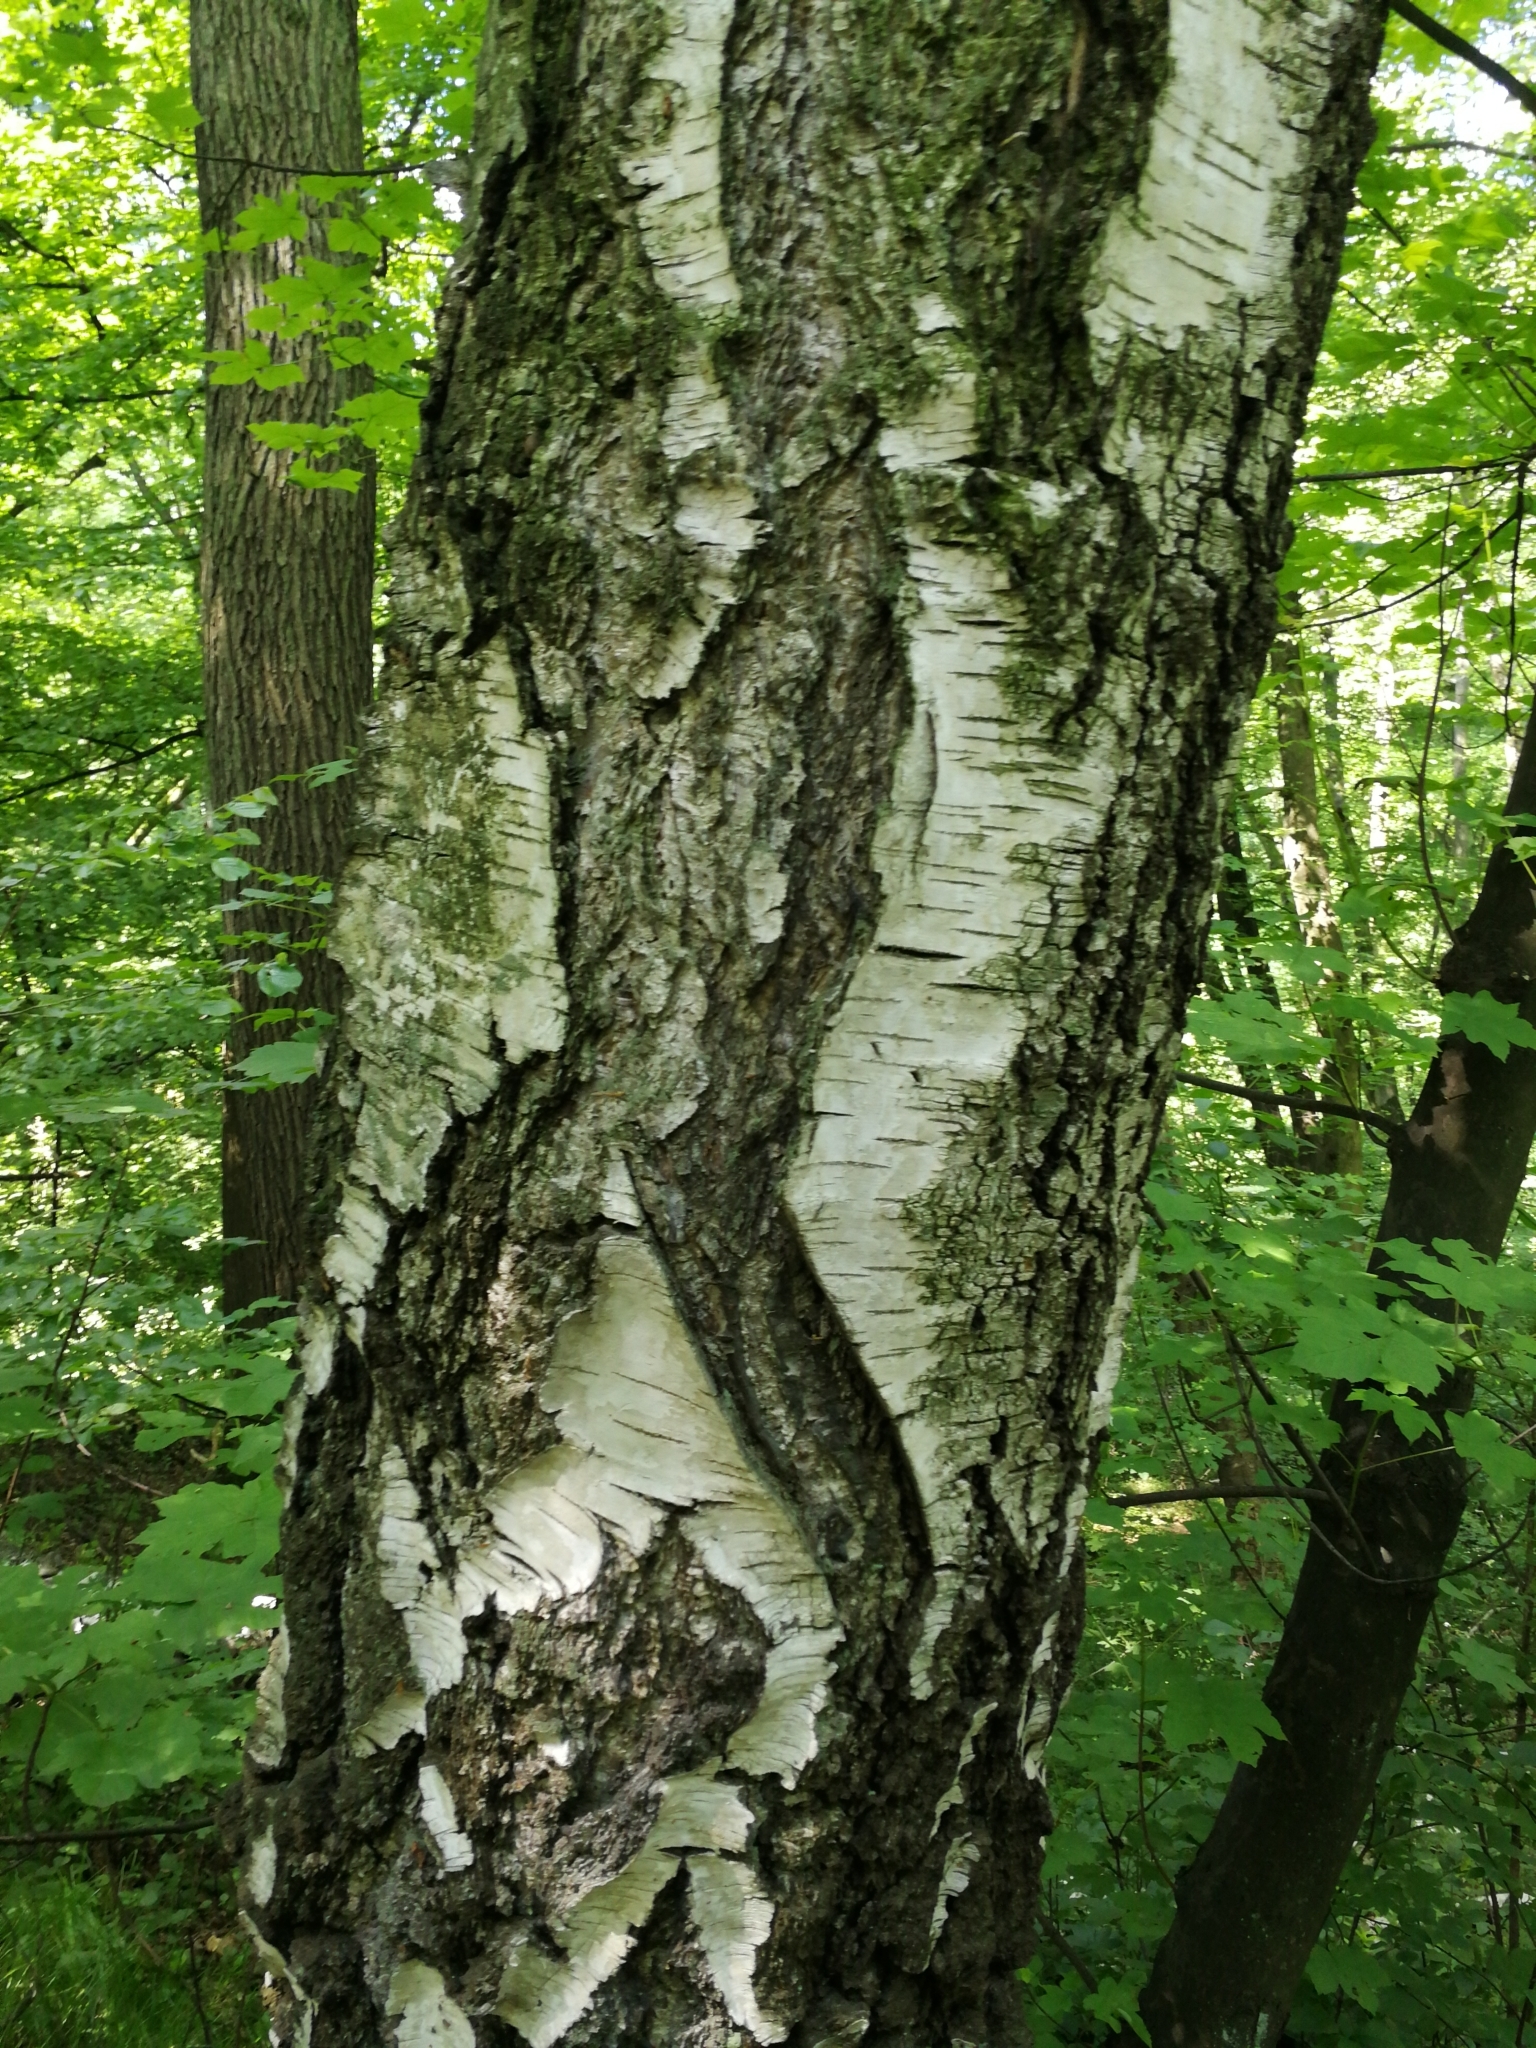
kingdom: Plantae
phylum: Tracheophyta
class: Magnoliopsida
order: Fagales
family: Betulaceae
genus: Betula
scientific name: Betula pendula
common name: Silver birch
